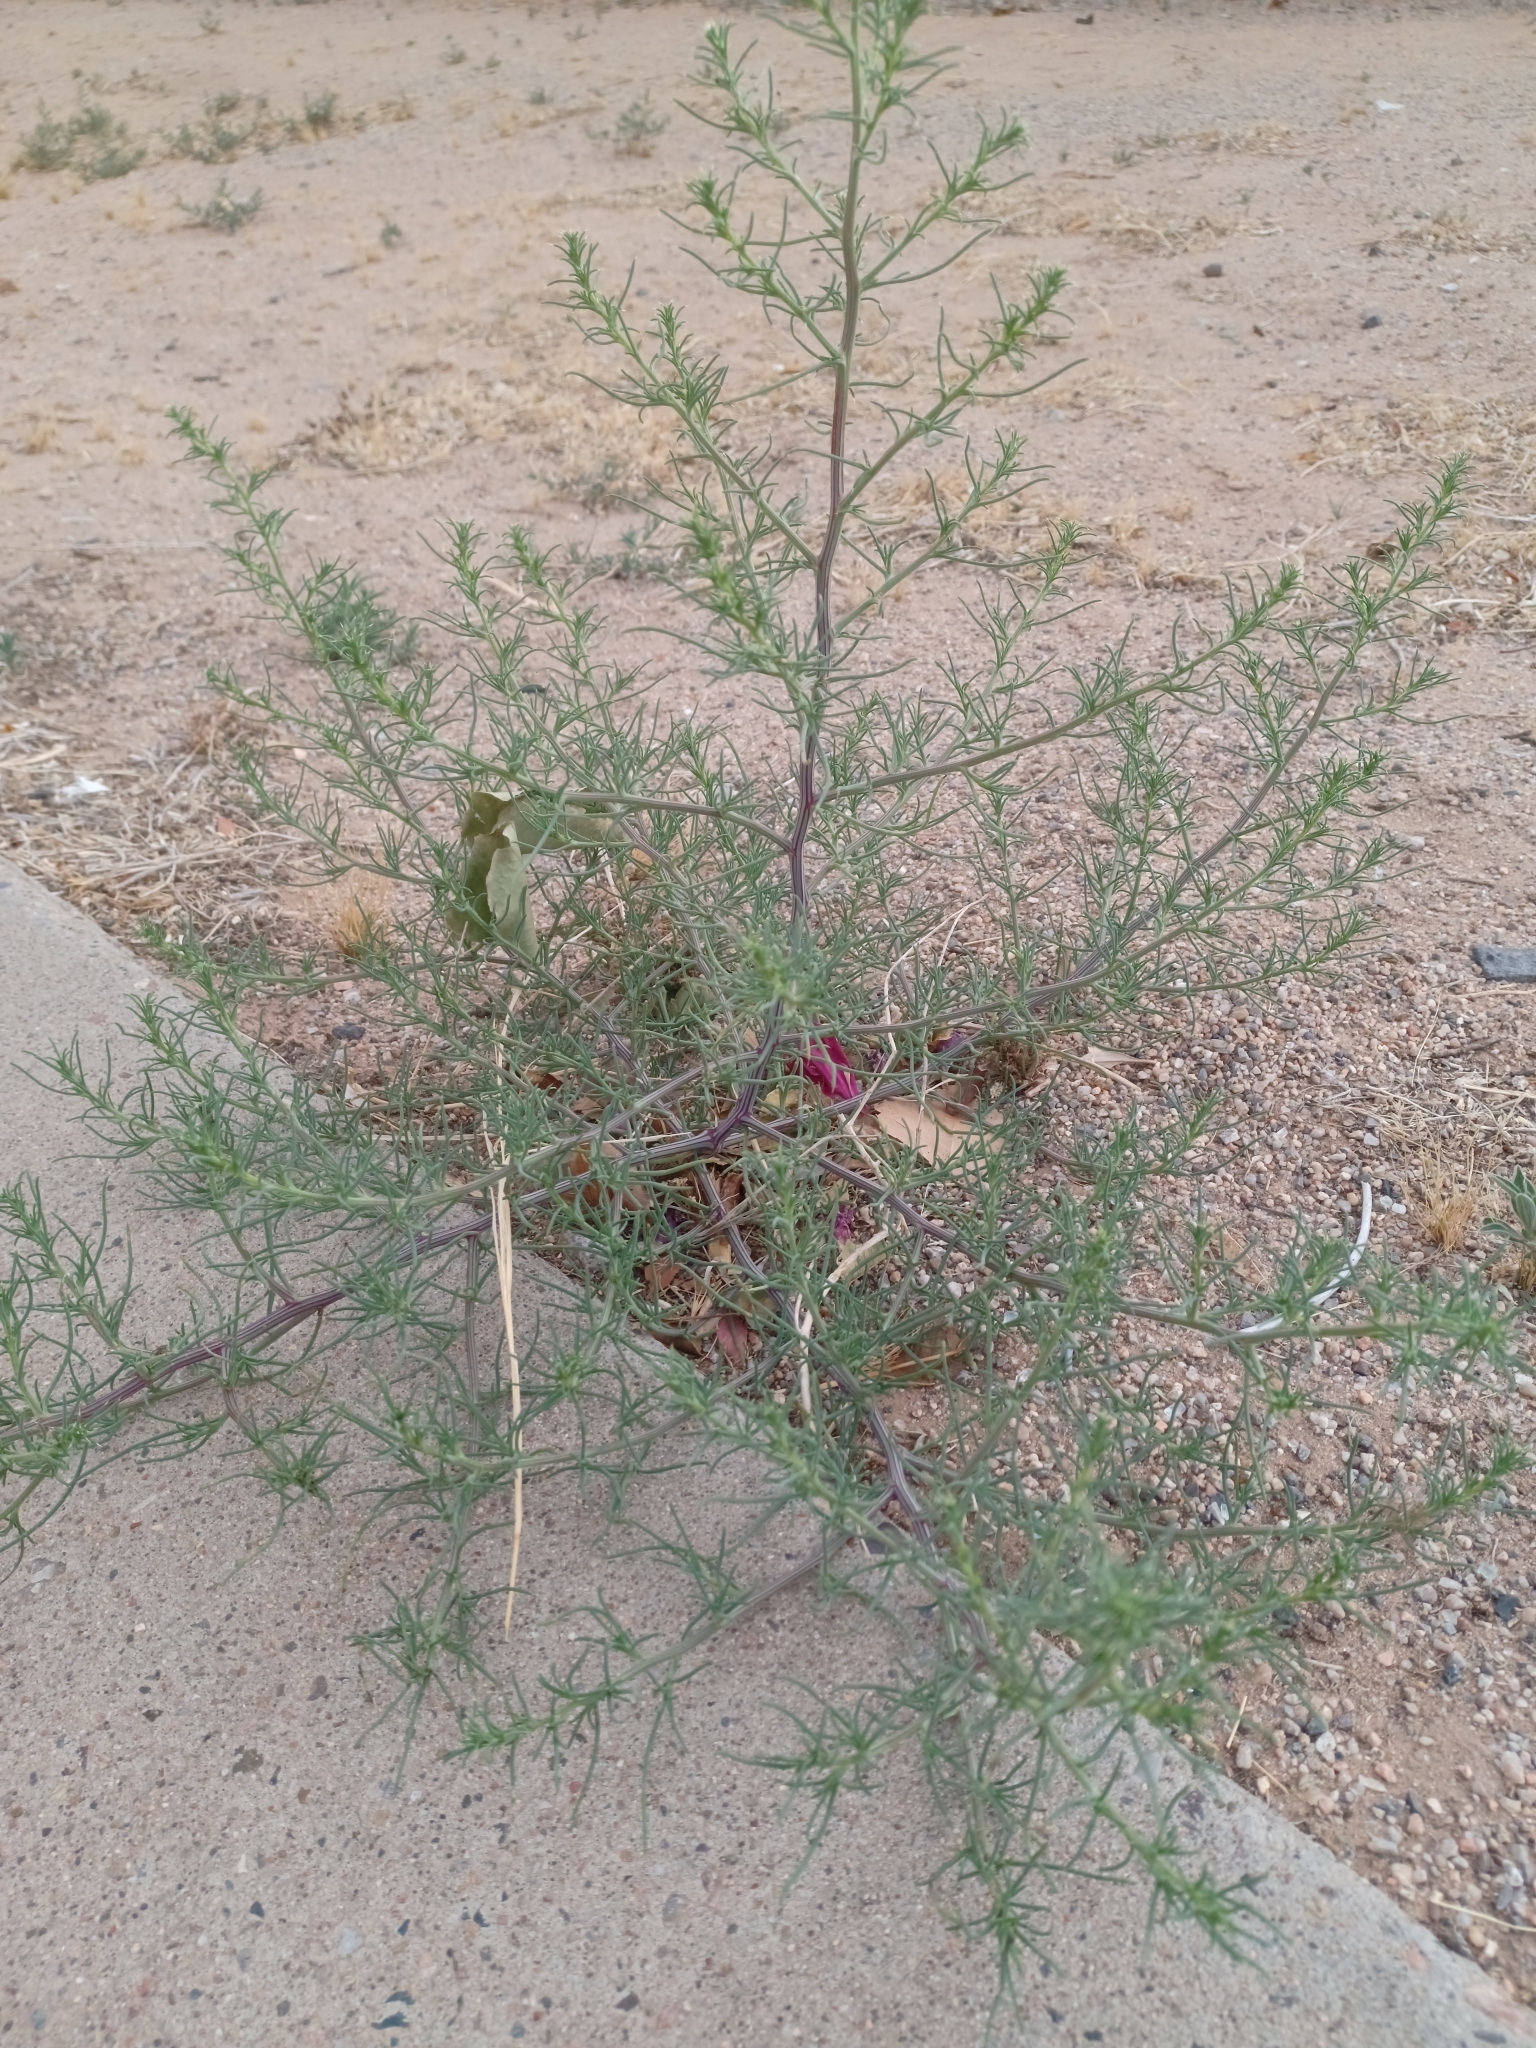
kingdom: Plantae
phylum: Tracheophyta
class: Magnoliopsida
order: Caryophyllales
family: Amaranthaceae
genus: Salsola
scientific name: Salsola tragus
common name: Prickly russian thistle
